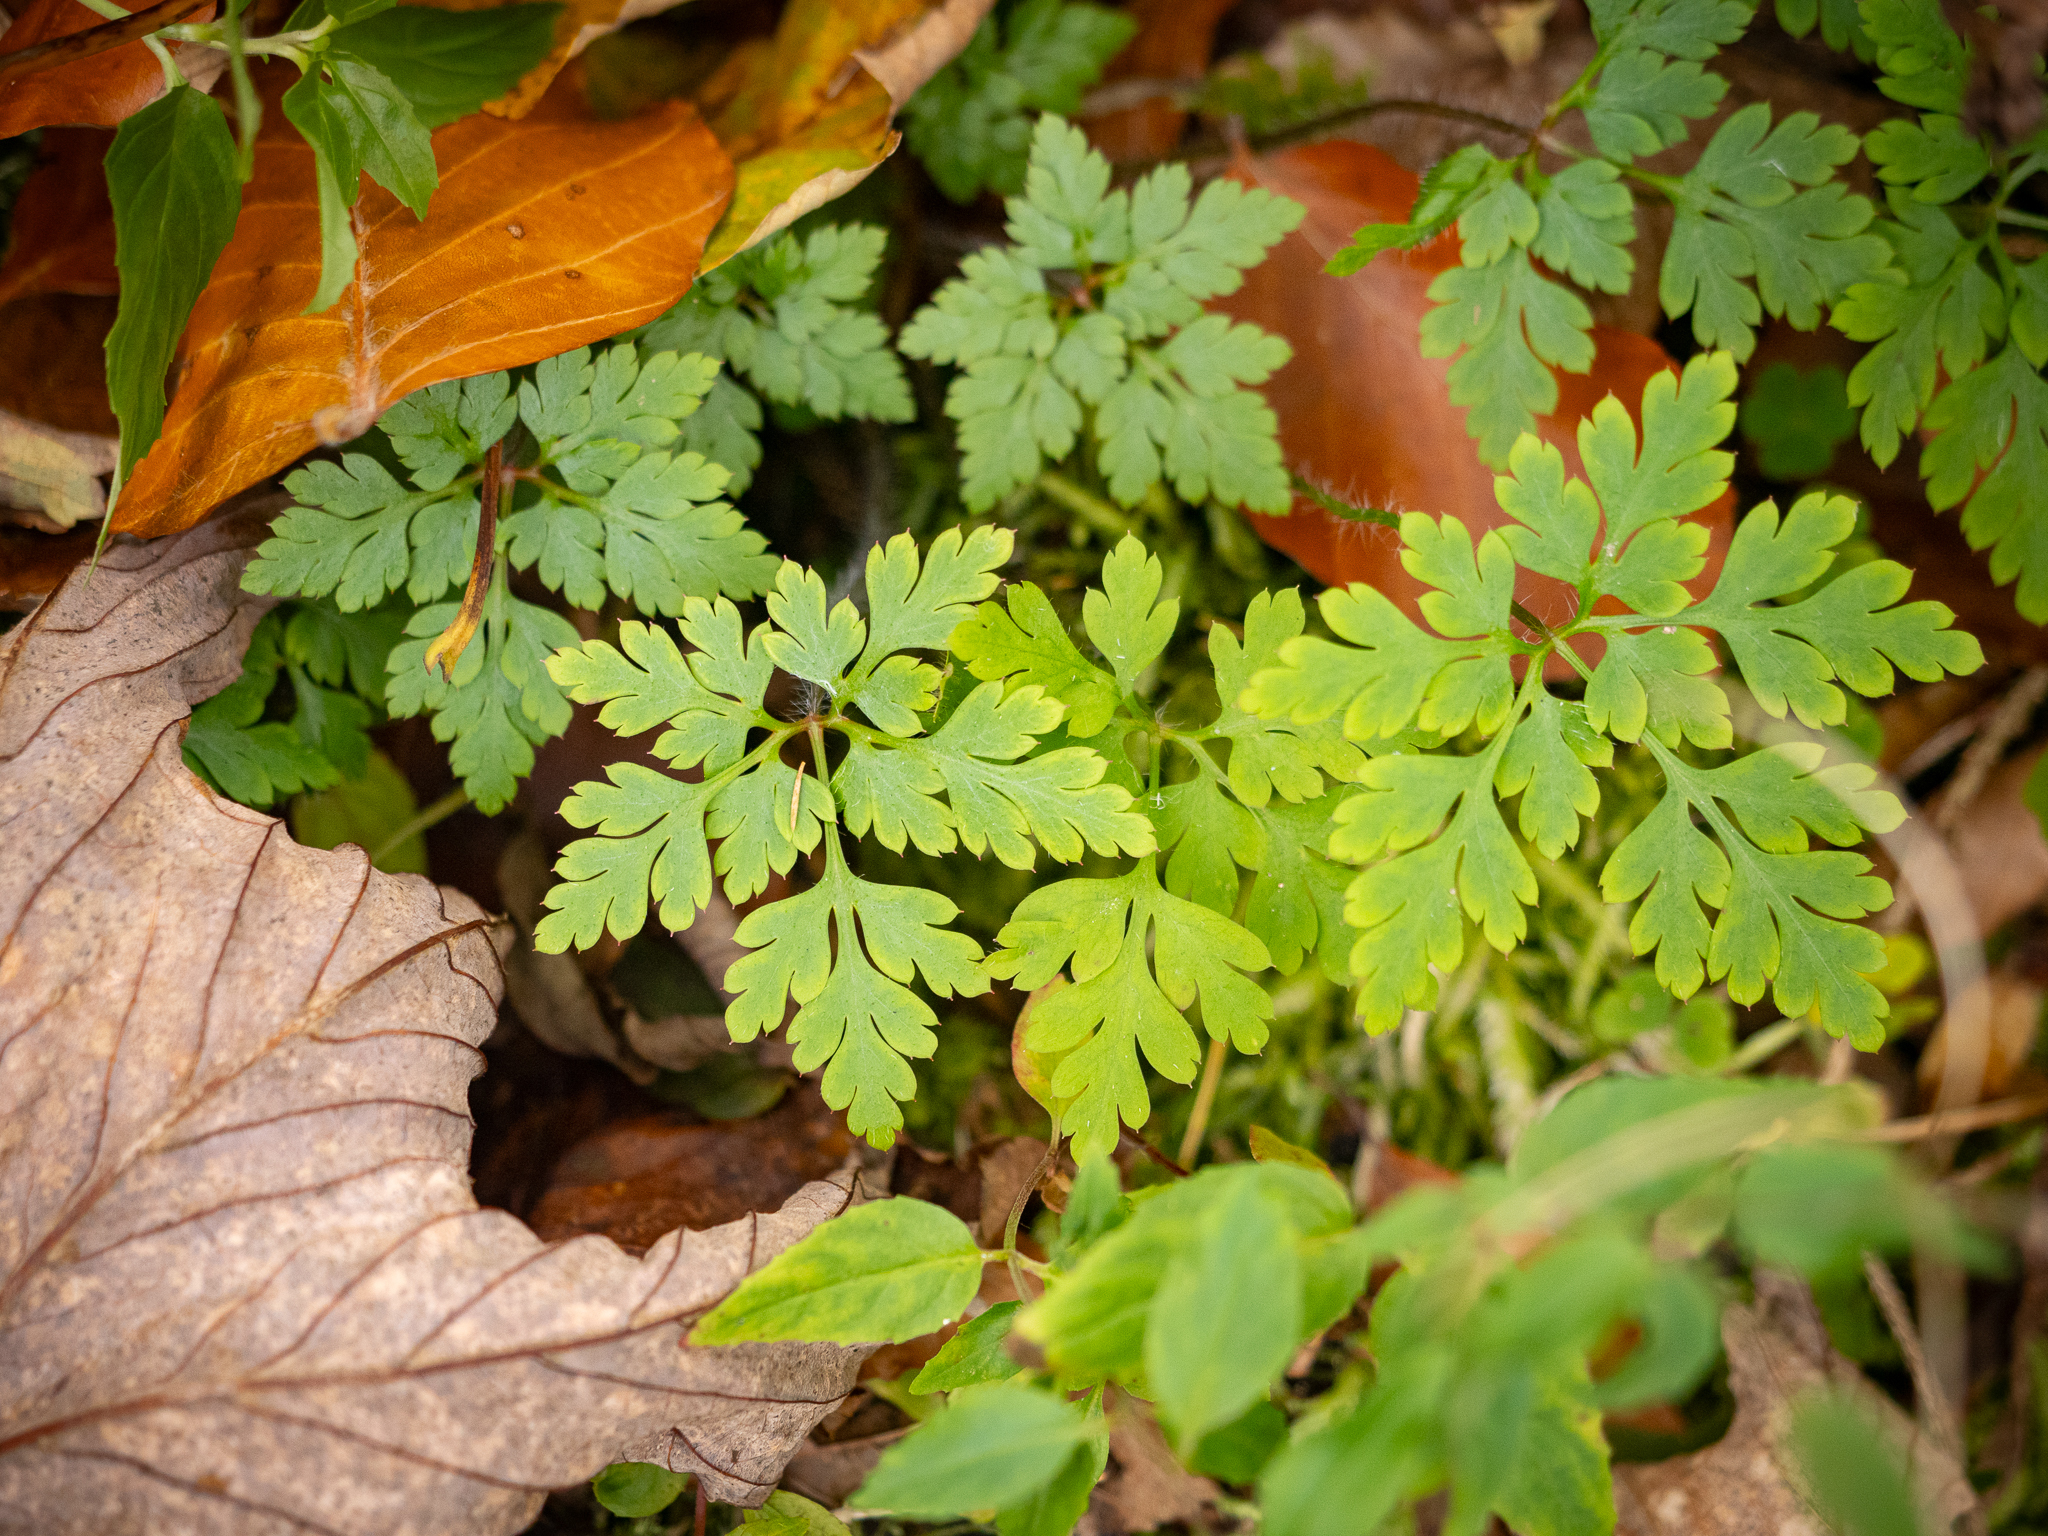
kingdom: Plantae
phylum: Tracheophyta
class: Magnoliopsida
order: Geraniales
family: Geraniaceae
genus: Geranium
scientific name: Geranium robertianum
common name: Herb-robert
